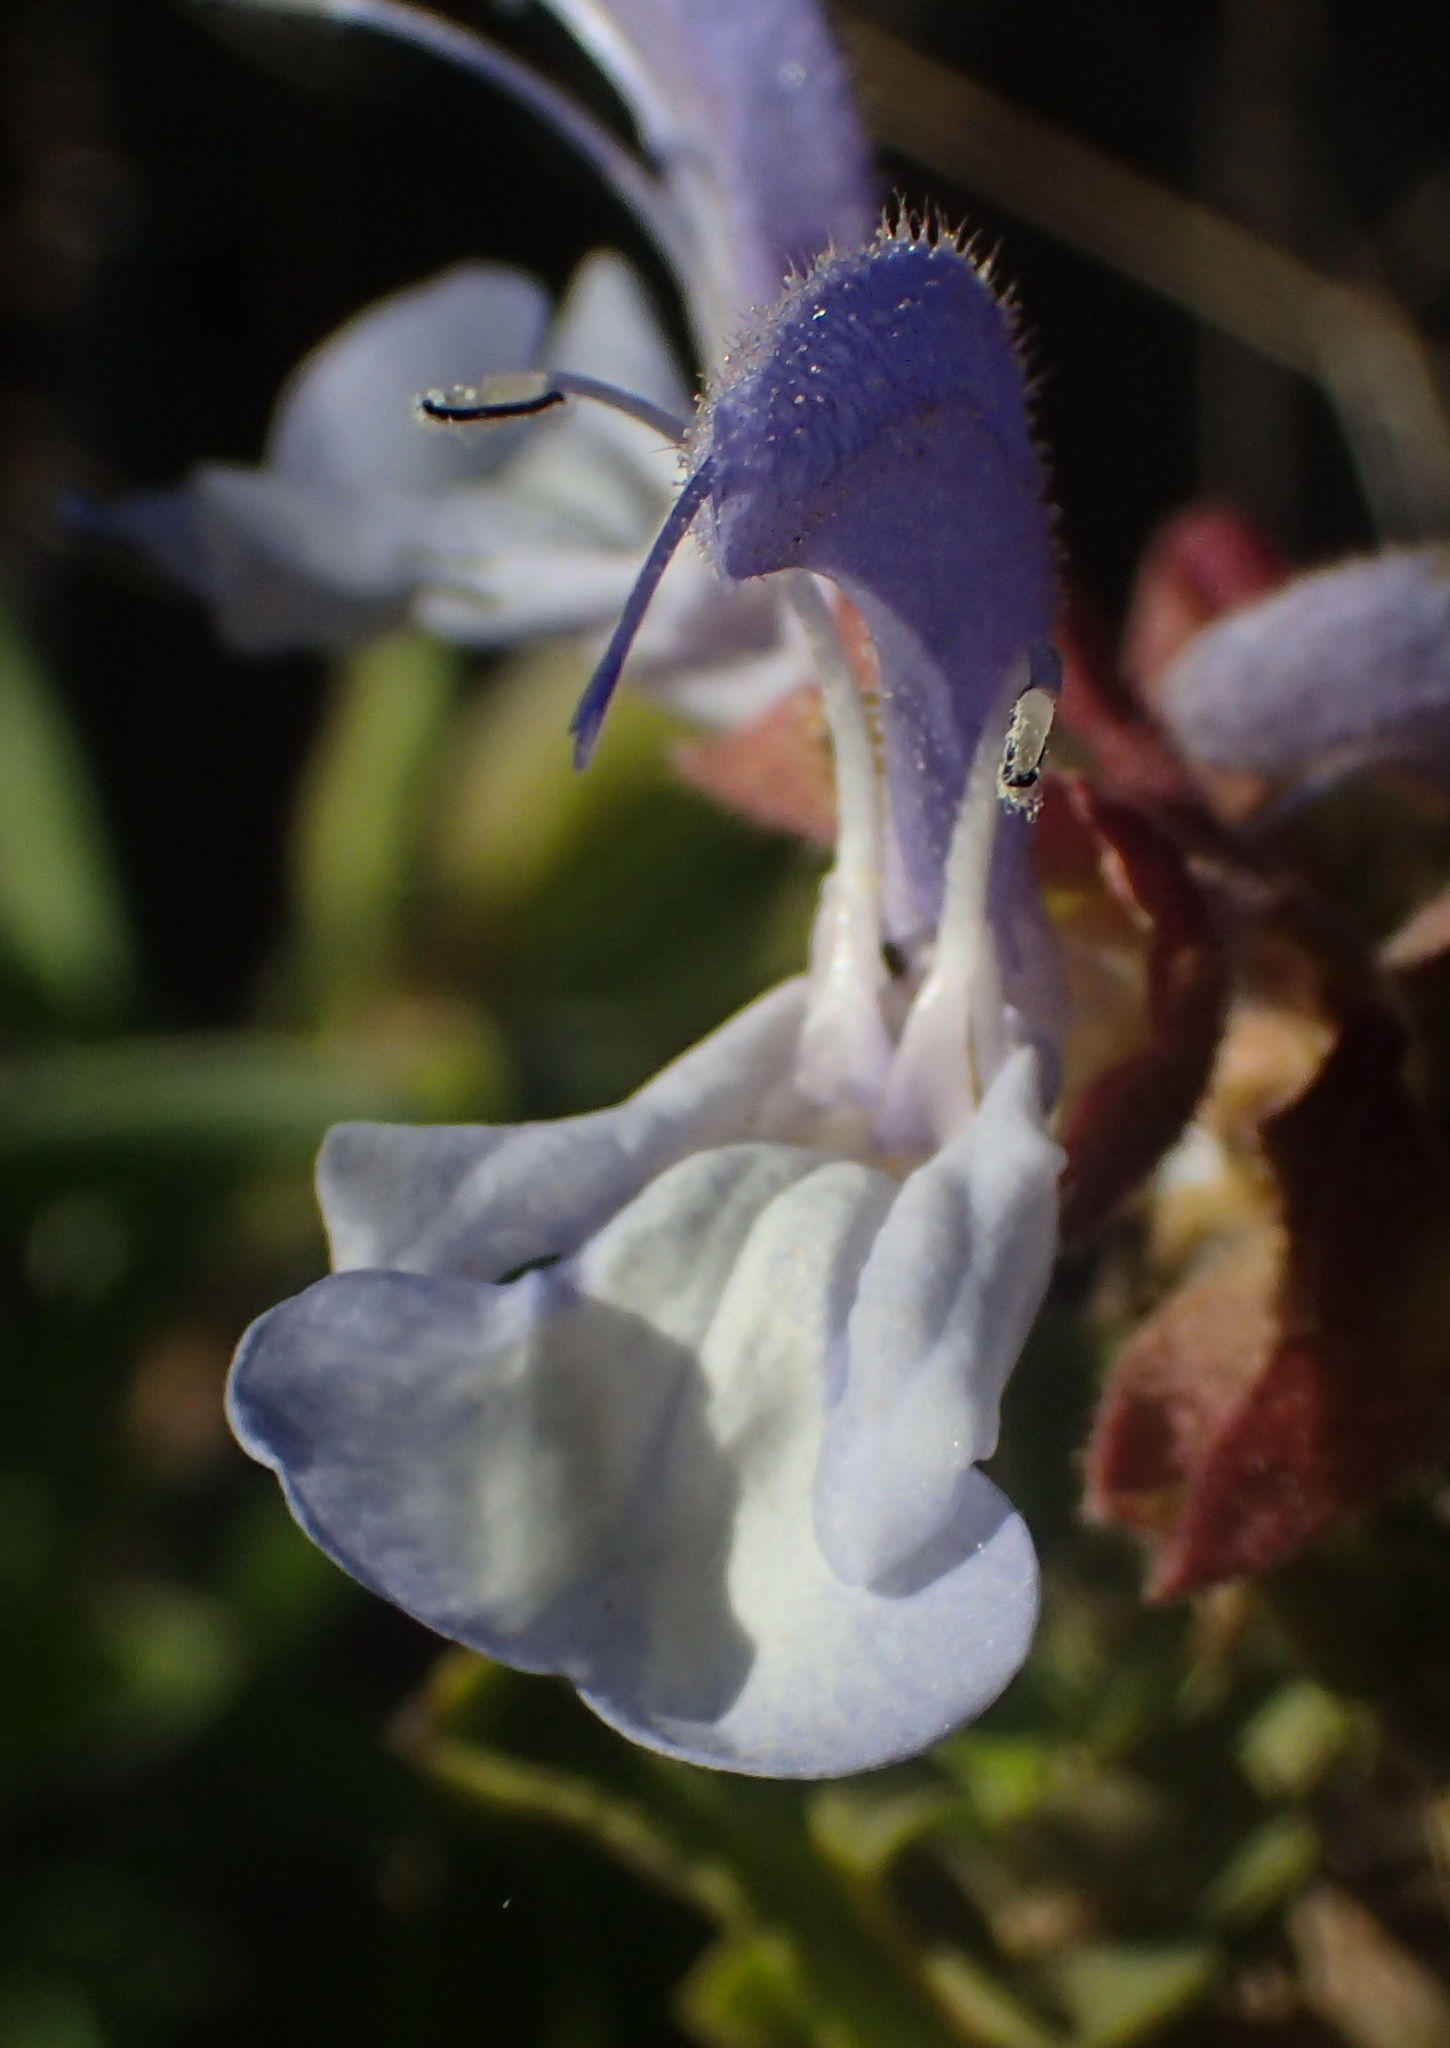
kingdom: Plantae
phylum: Tracheophyta
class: Magnoliopsida
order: Lamiales
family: Lamiaceae
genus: Salvia
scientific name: Salvia chamelaeagnea
